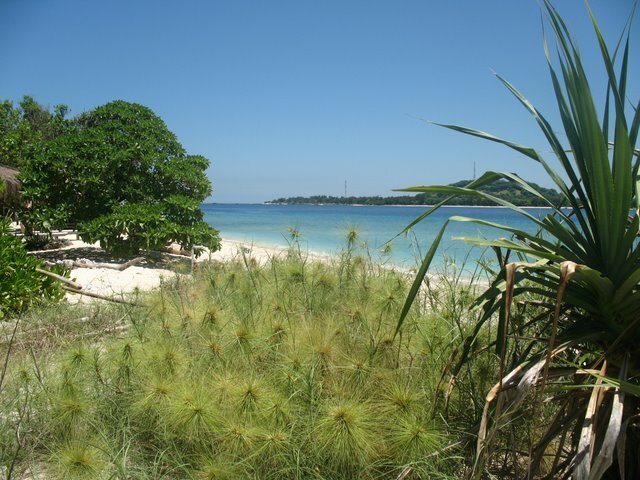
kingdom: Plantae
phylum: Tracheophyta
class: Liliopsida
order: Poales
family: Poaceae
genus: Spinifex
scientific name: Spinifex littoreus
